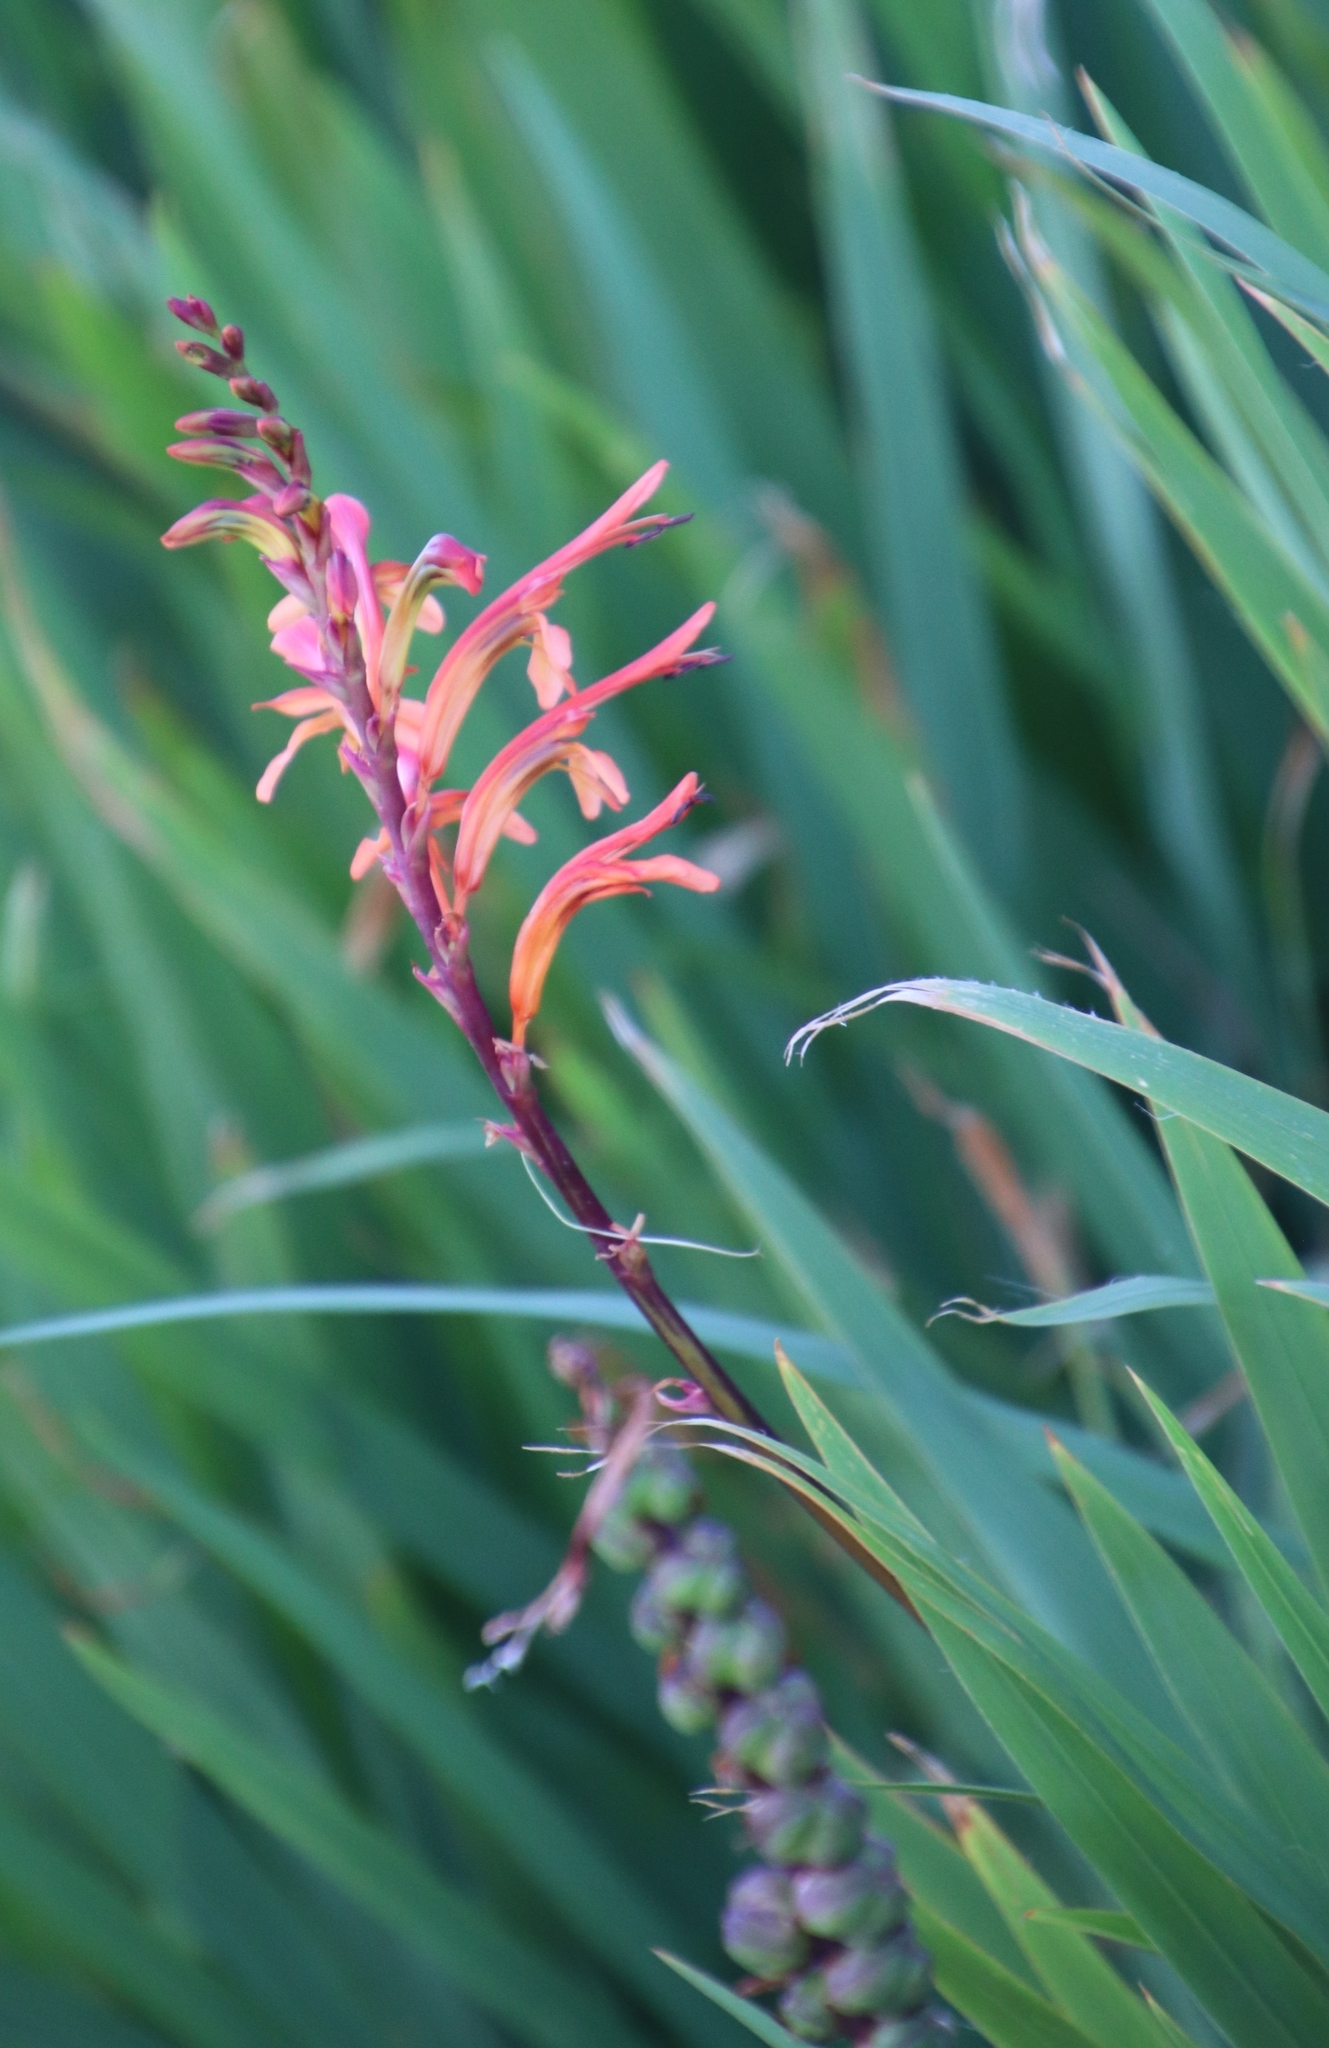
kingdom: Plantae
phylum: Tracheophyta
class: Liliopsida
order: Asparagales
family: Iridaceae
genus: Chasmanthe
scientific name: Chasmanthe floribunda
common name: African cornflag
